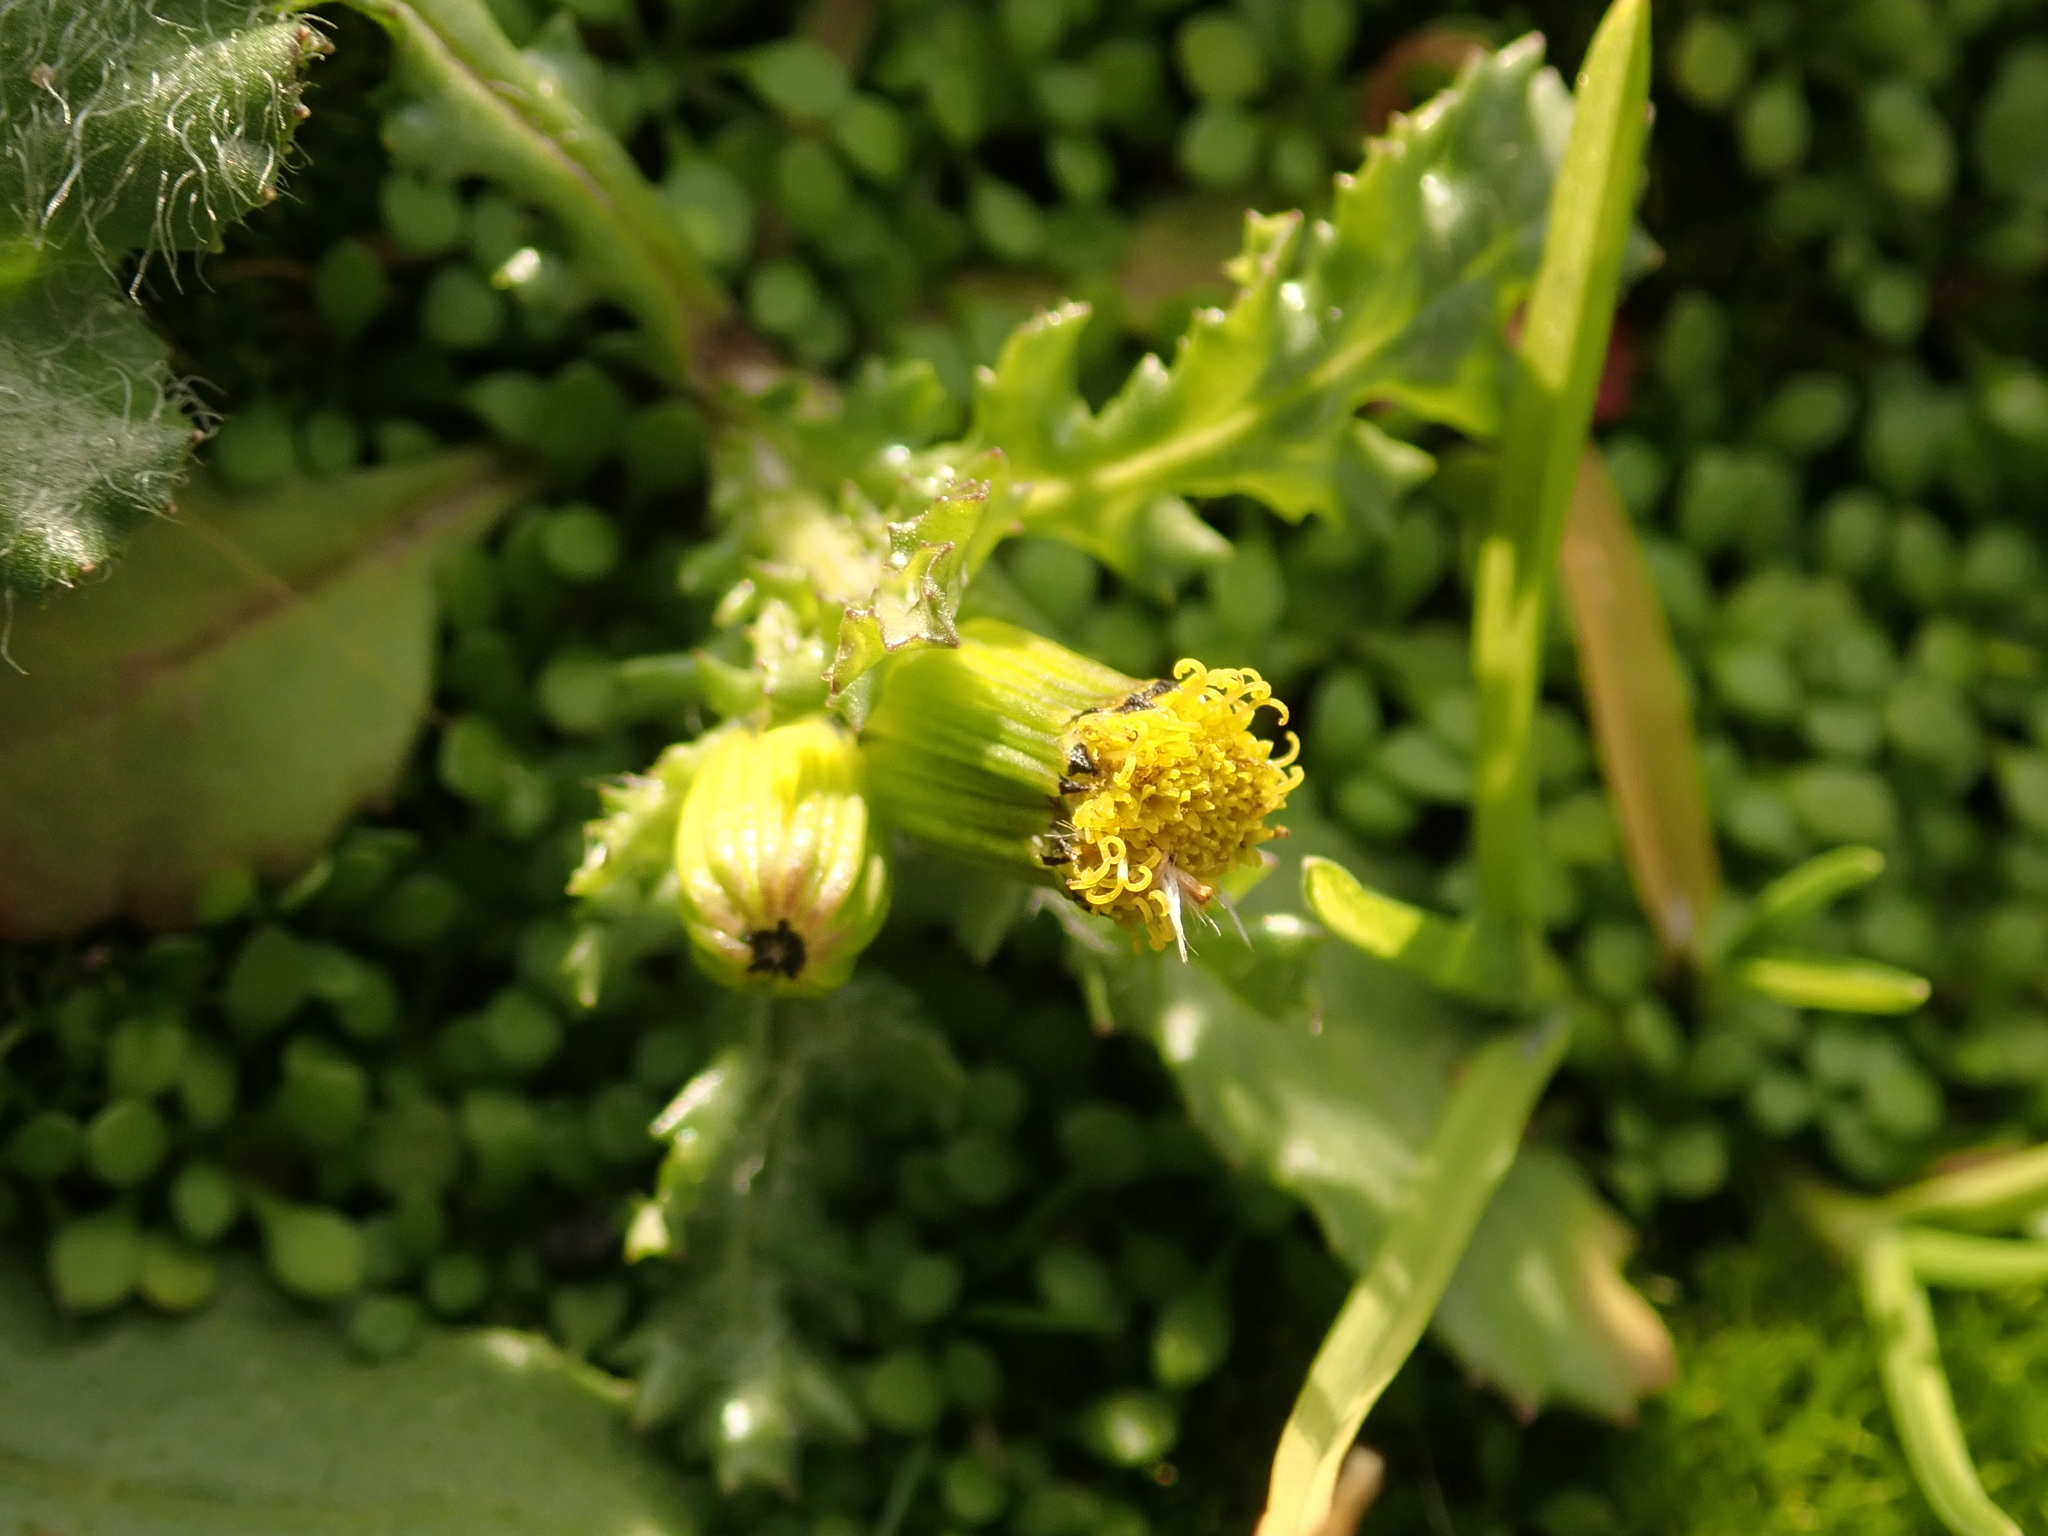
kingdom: Plantae
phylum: Tracheophyta
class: Magnoliopsida
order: Asterales
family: Asteraceae
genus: Senecio
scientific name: Senecio vulgaris
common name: Old-man-in-the-spring
